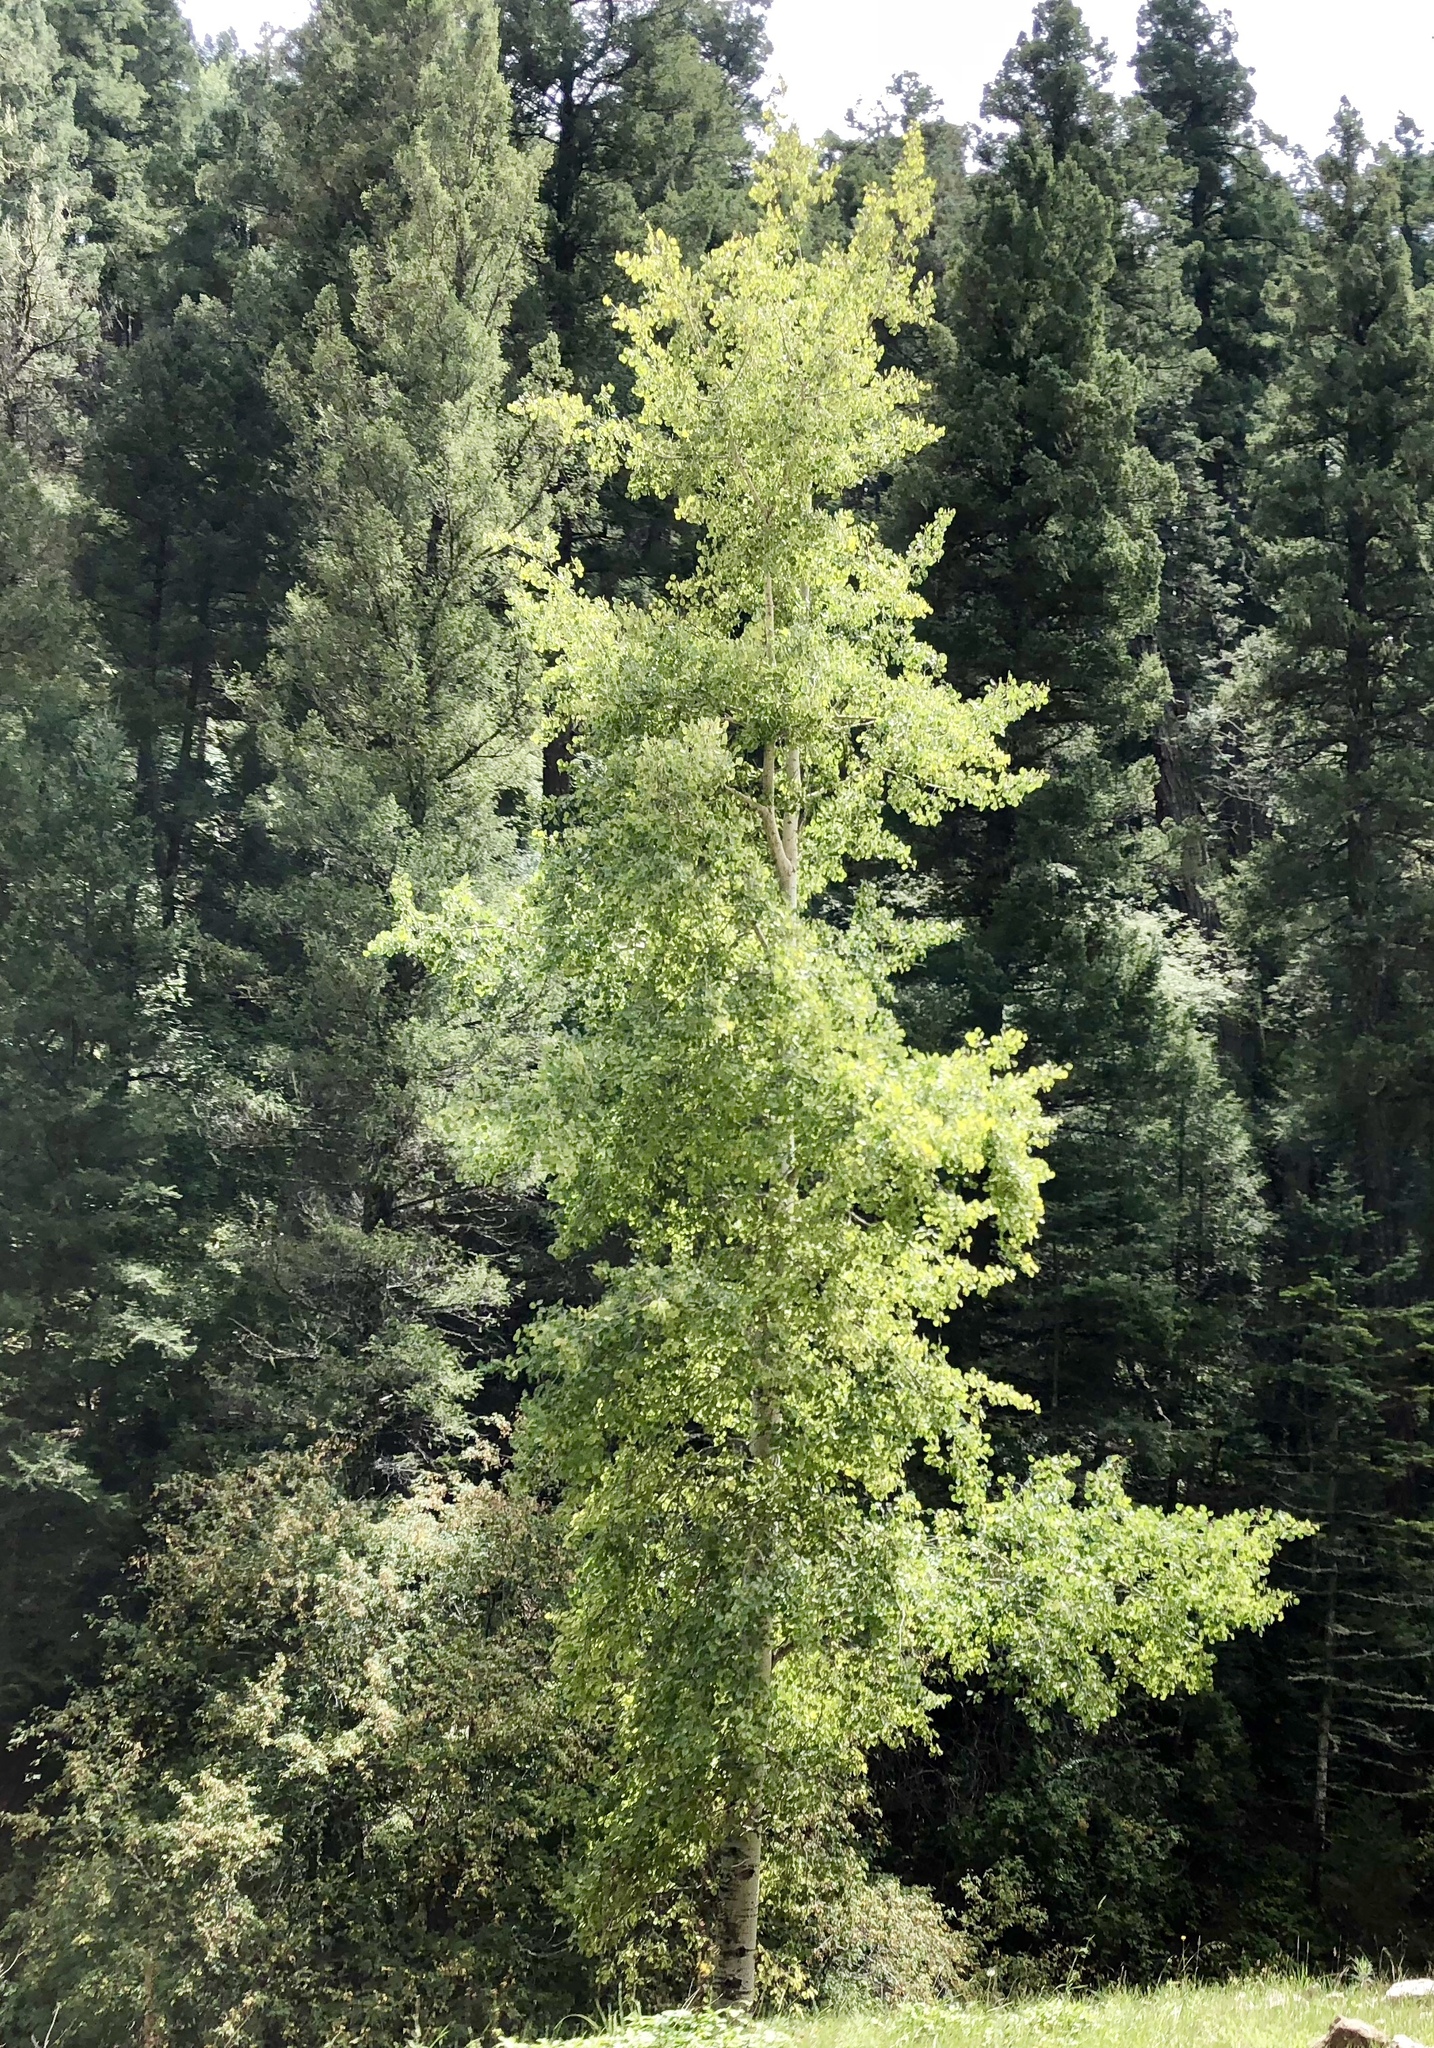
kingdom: Plantae
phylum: Tracheophyta
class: Magnoliopsida
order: Malpighiales
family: Salicaceae
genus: Populus
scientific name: Populus tremuloides
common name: Quaking aspen
